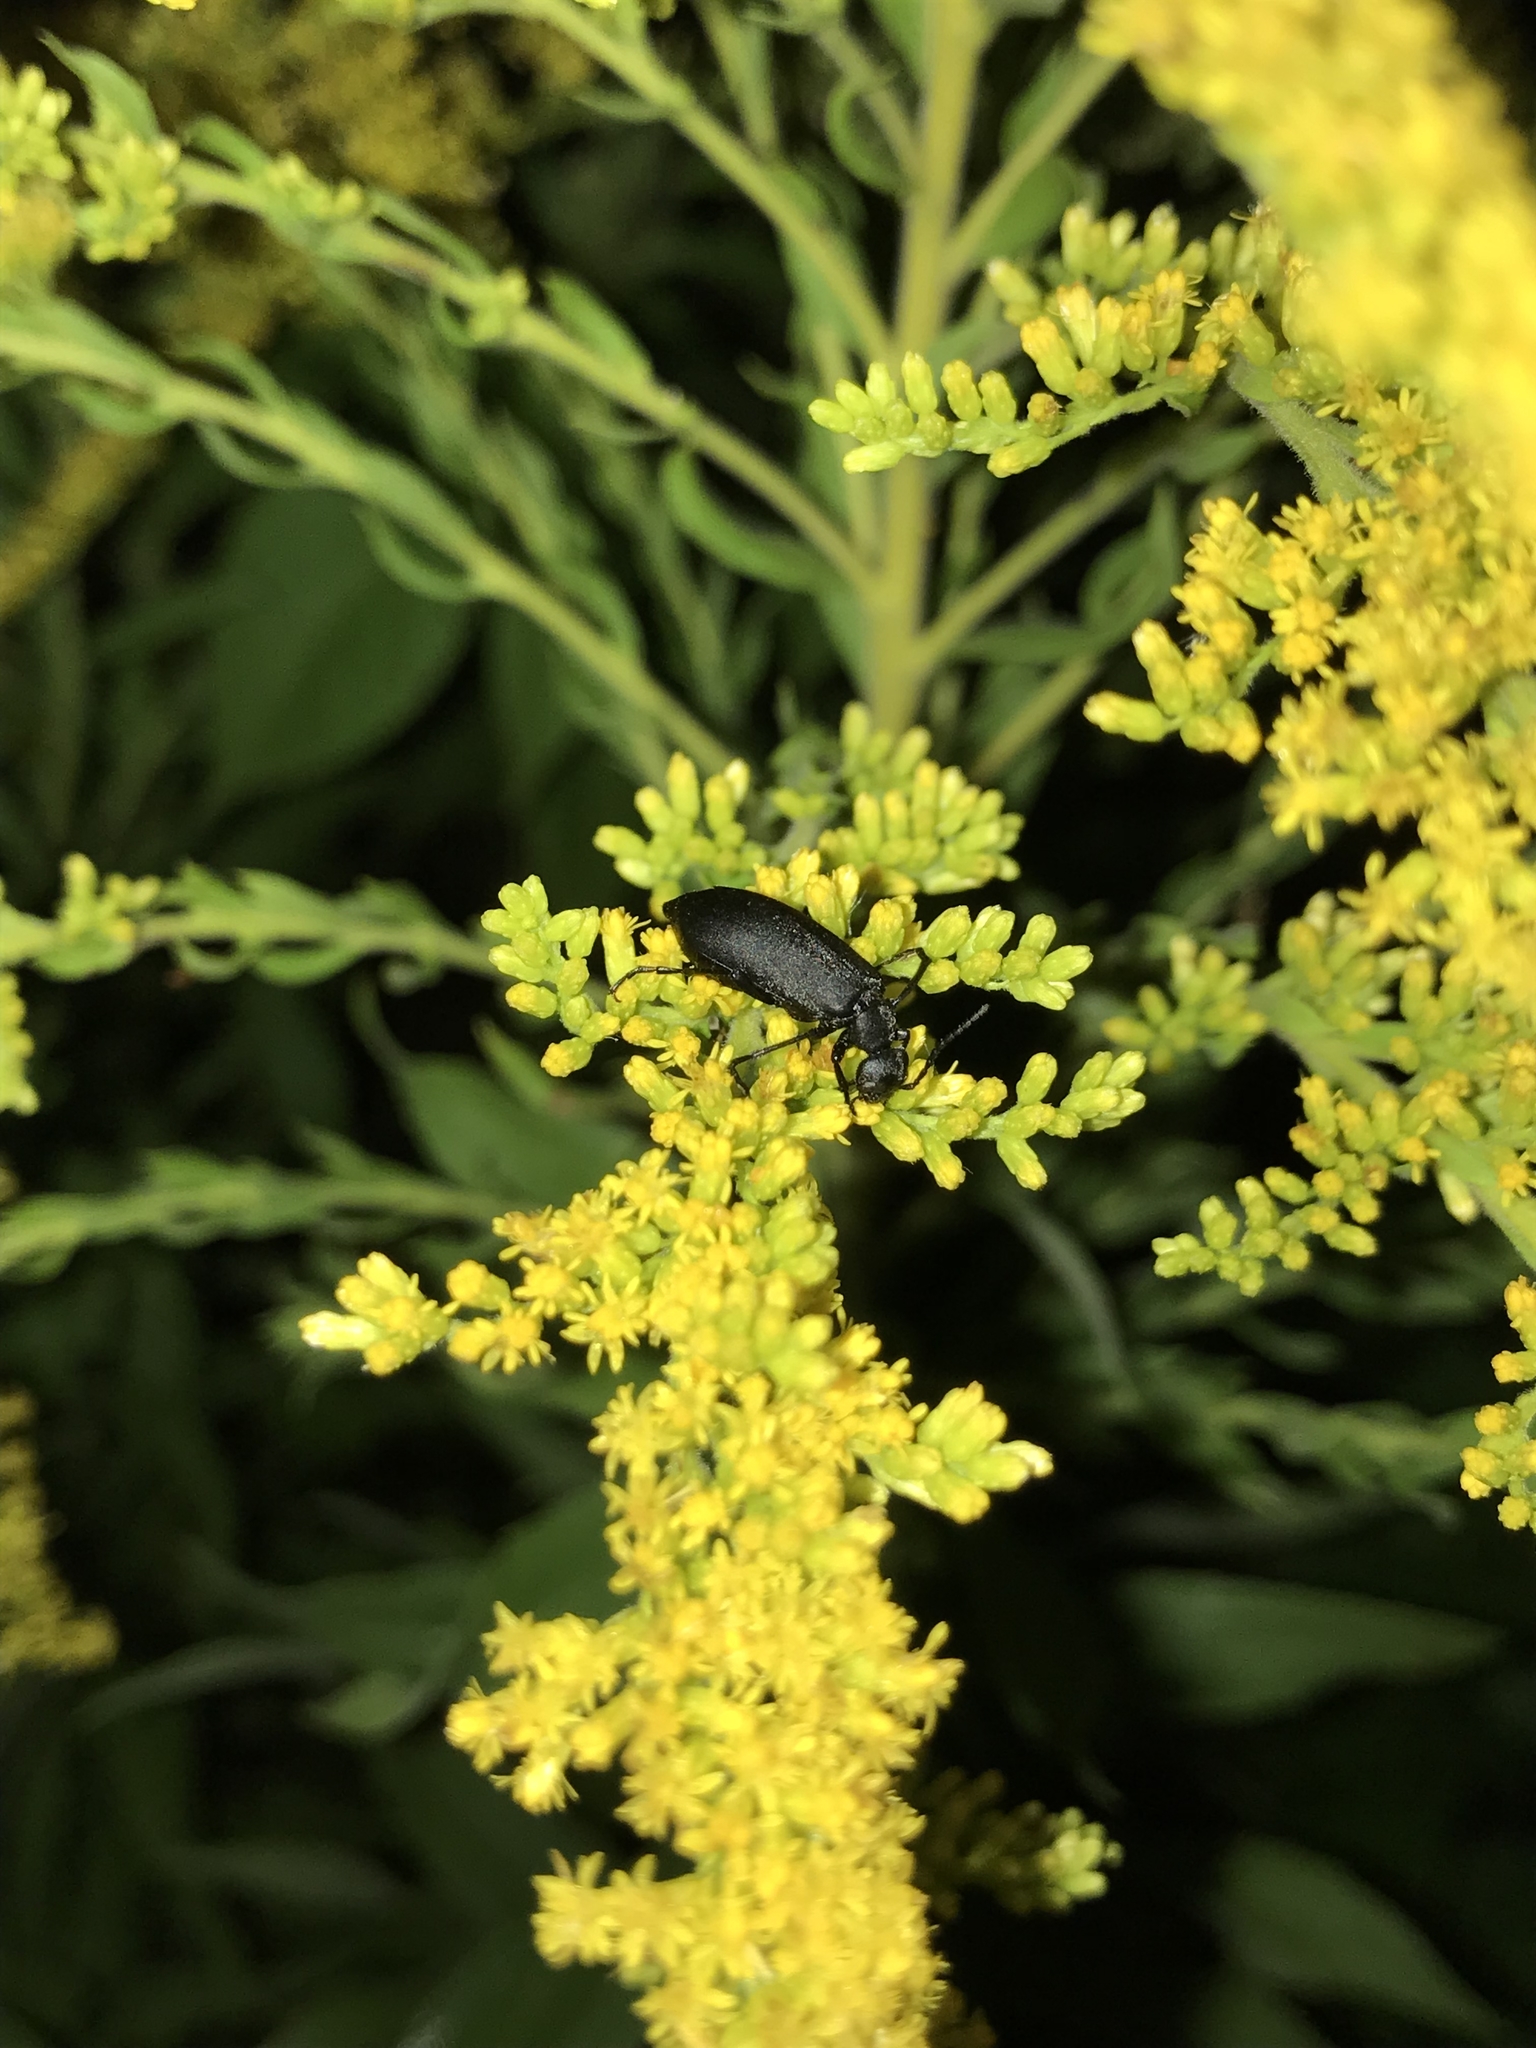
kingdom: Animalia
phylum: Arthropoda
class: Insecta
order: Coleoptera
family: Meloidae
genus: Epicauta
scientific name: Epicauta pensylvanica
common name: Black blister beetle
